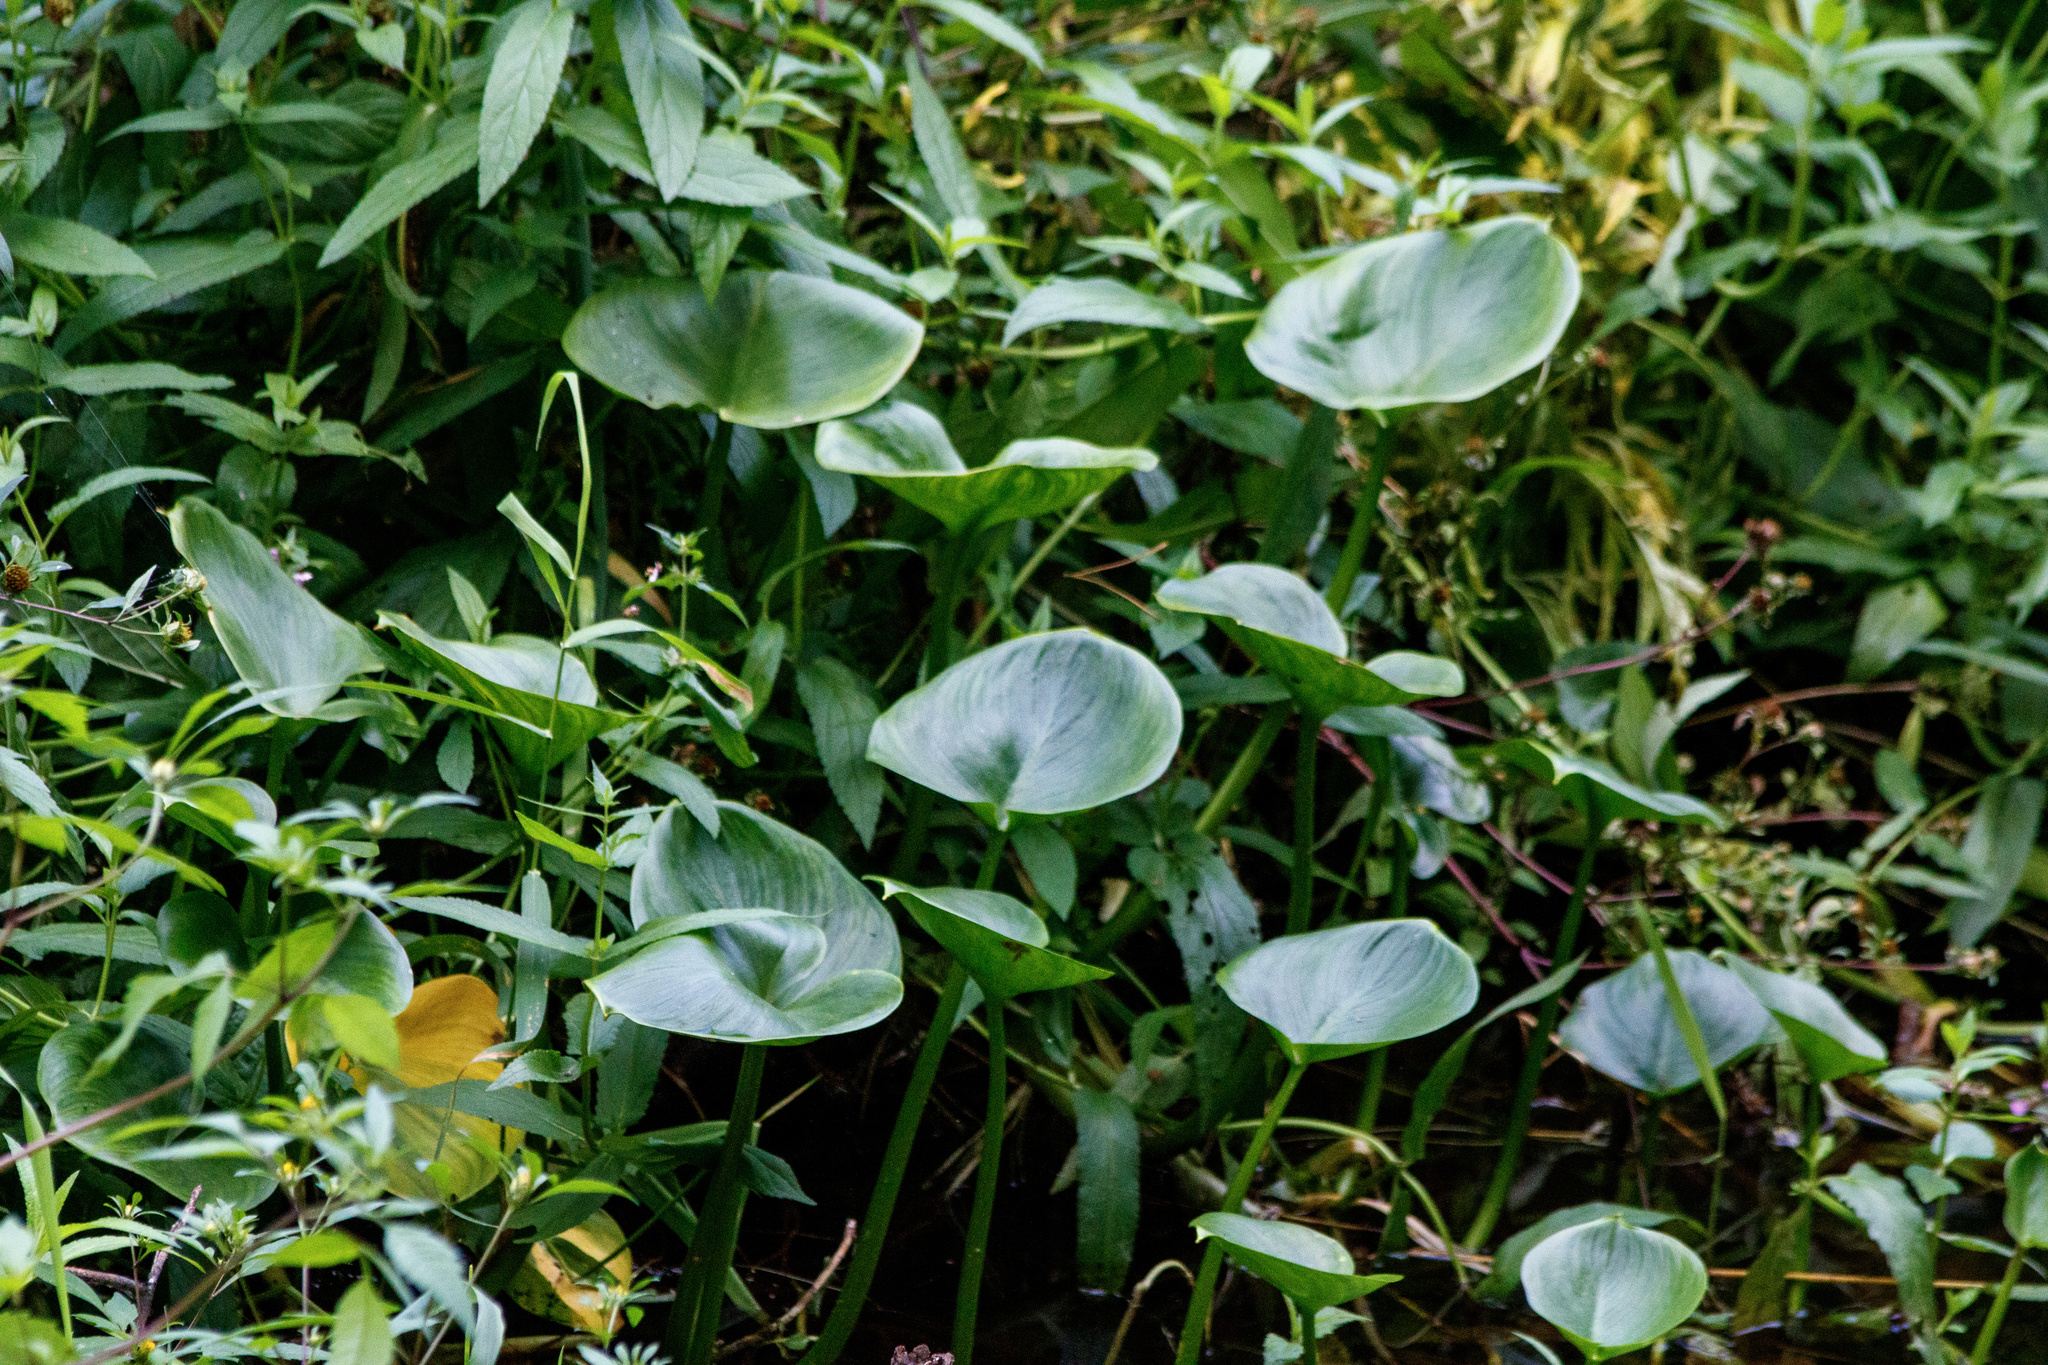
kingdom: Plantae
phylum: Tracheophyta
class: Liliopsida
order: Alismatales
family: Araceae
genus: Calla
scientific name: Calla palustris
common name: Bog arum
